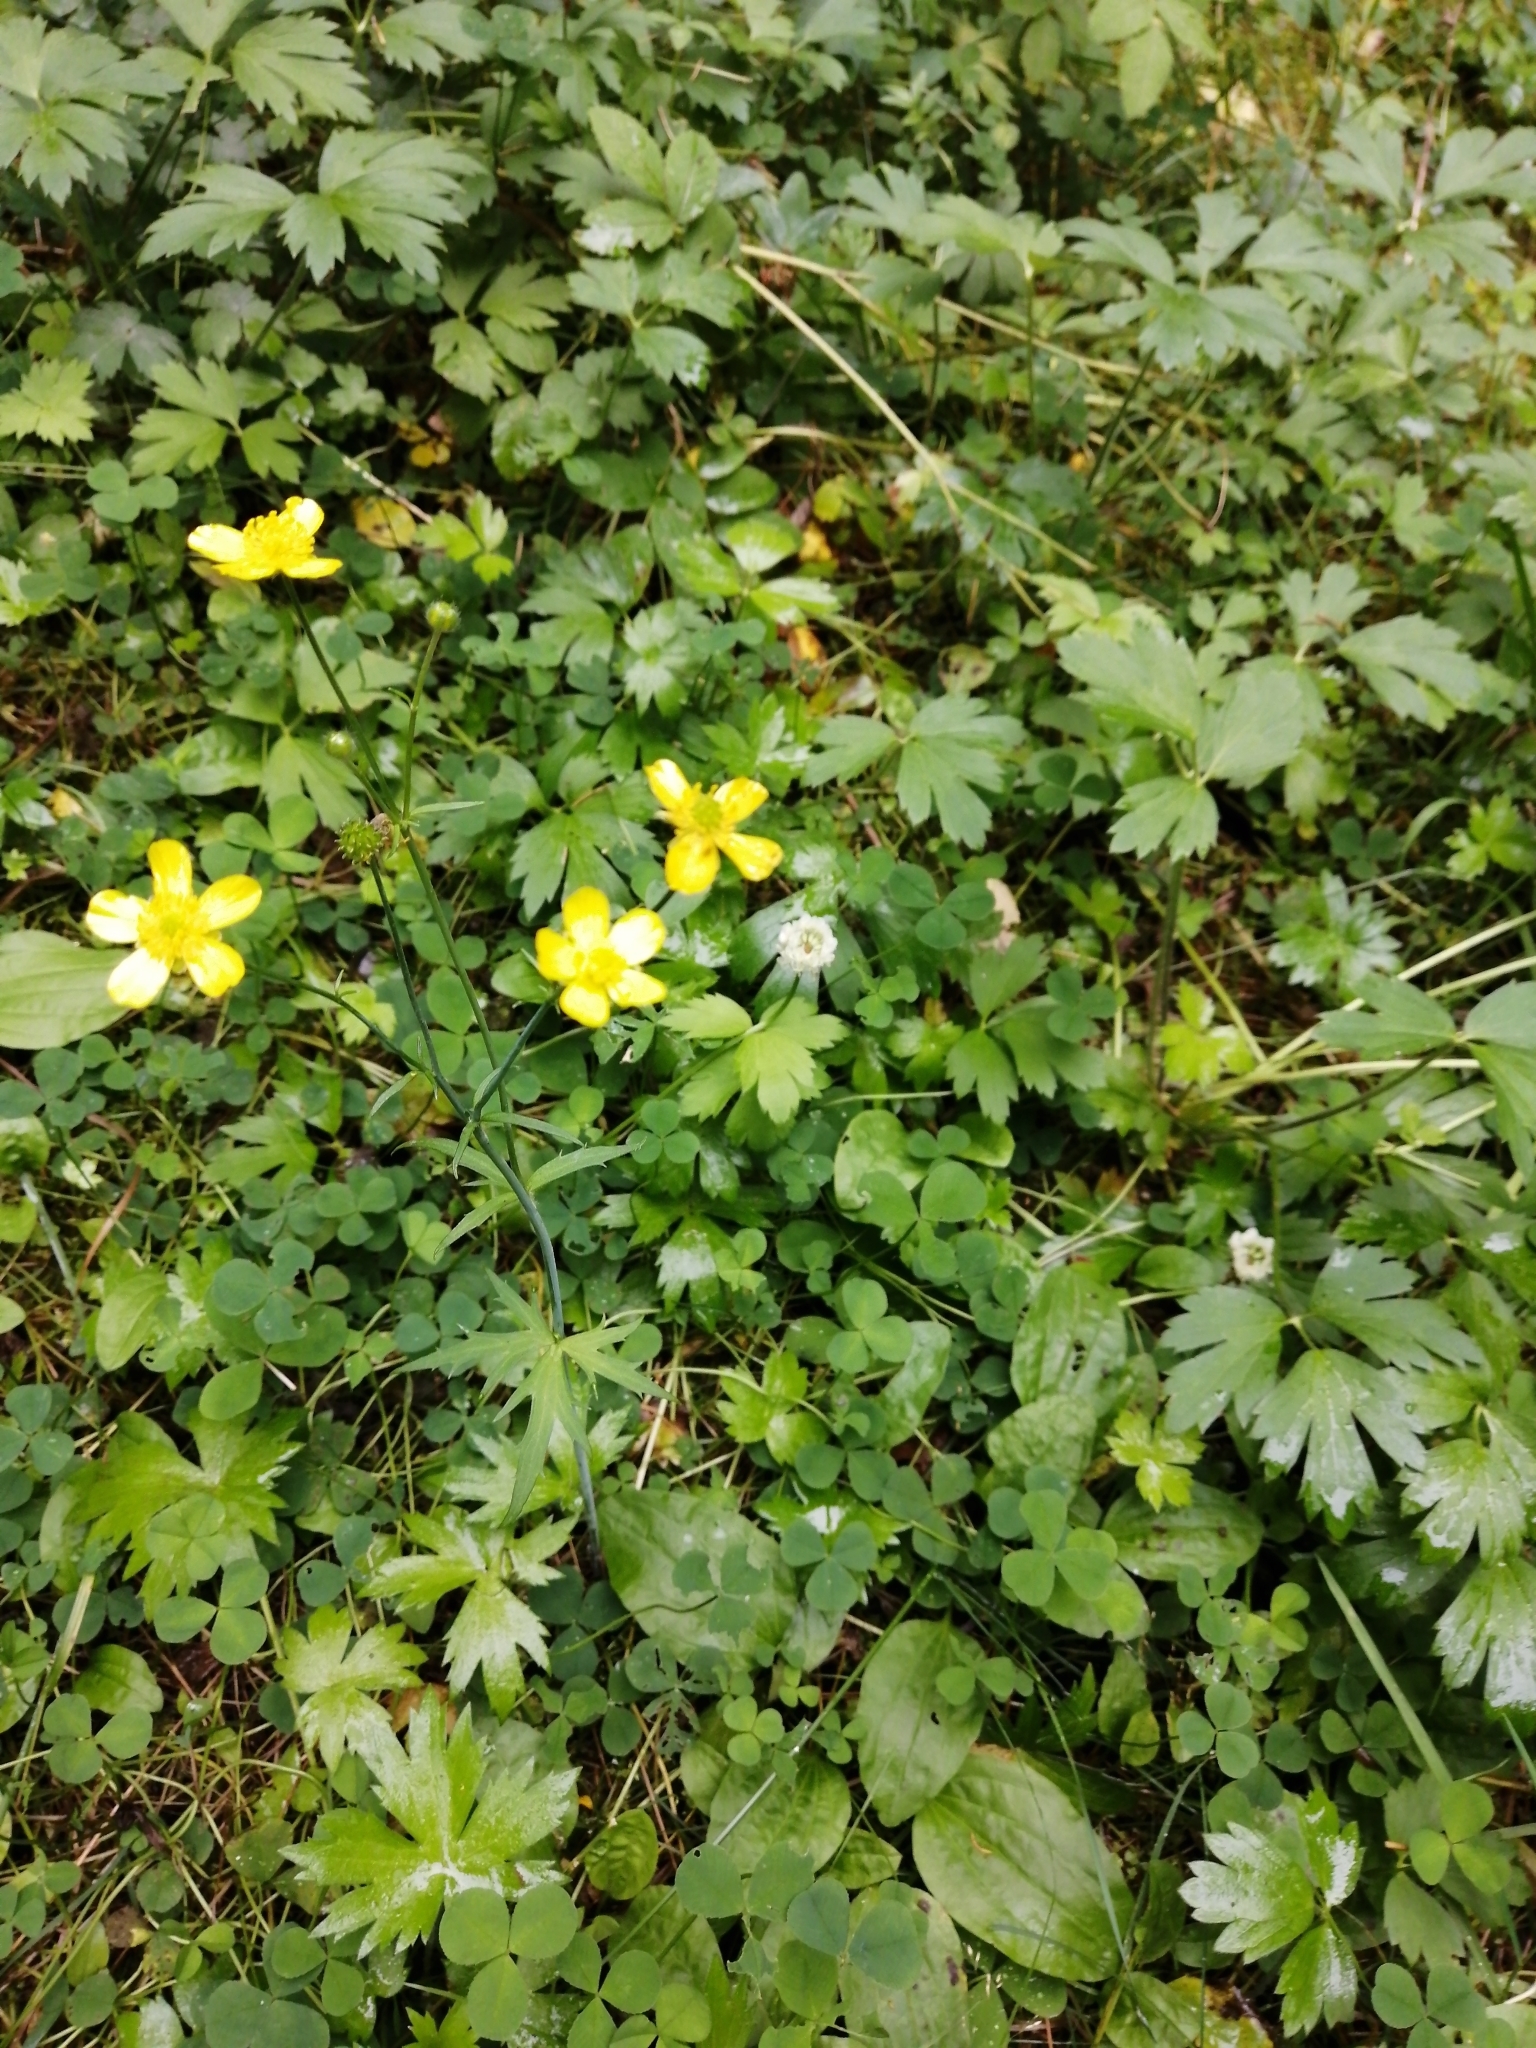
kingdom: Plantae
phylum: Tracheophyta
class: Magnoliopsida
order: Ranunculales
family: Ranunculaceae
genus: Ranunculus
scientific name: Ranunculus repens
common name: Creeping buttercup
